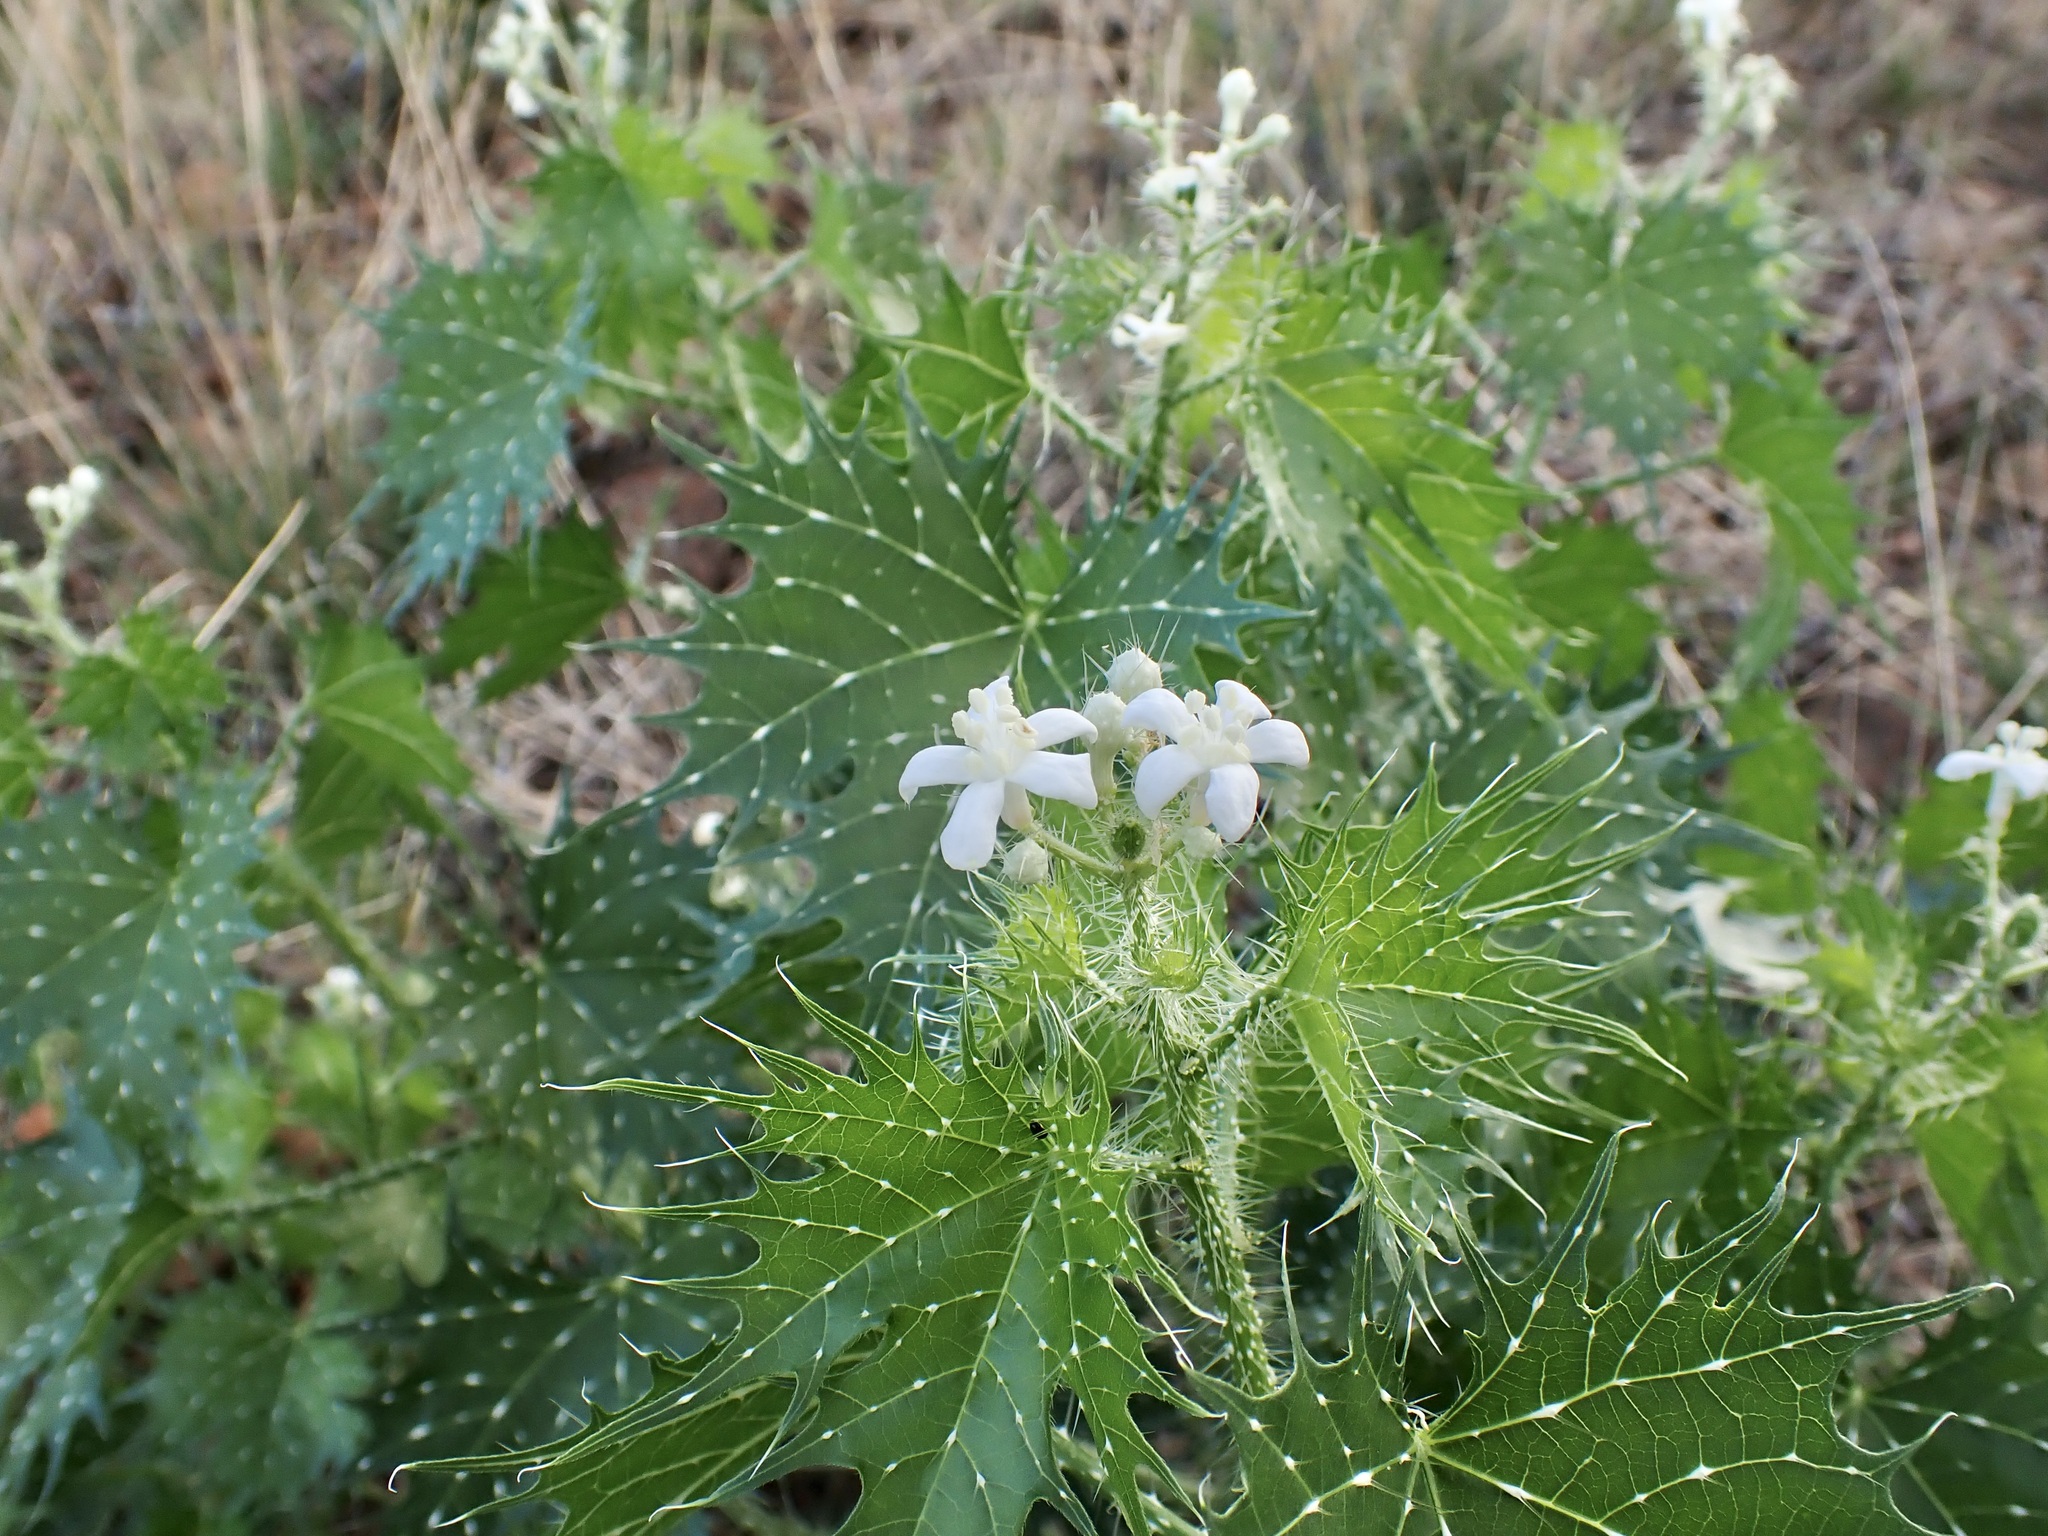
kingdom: Plantae
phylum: Tracheophyta
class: Magnoliopsida
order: Malpighiales
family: Euphorbiaceae
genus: Cnidoscolus
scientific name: Cnidoscolus angustidens
